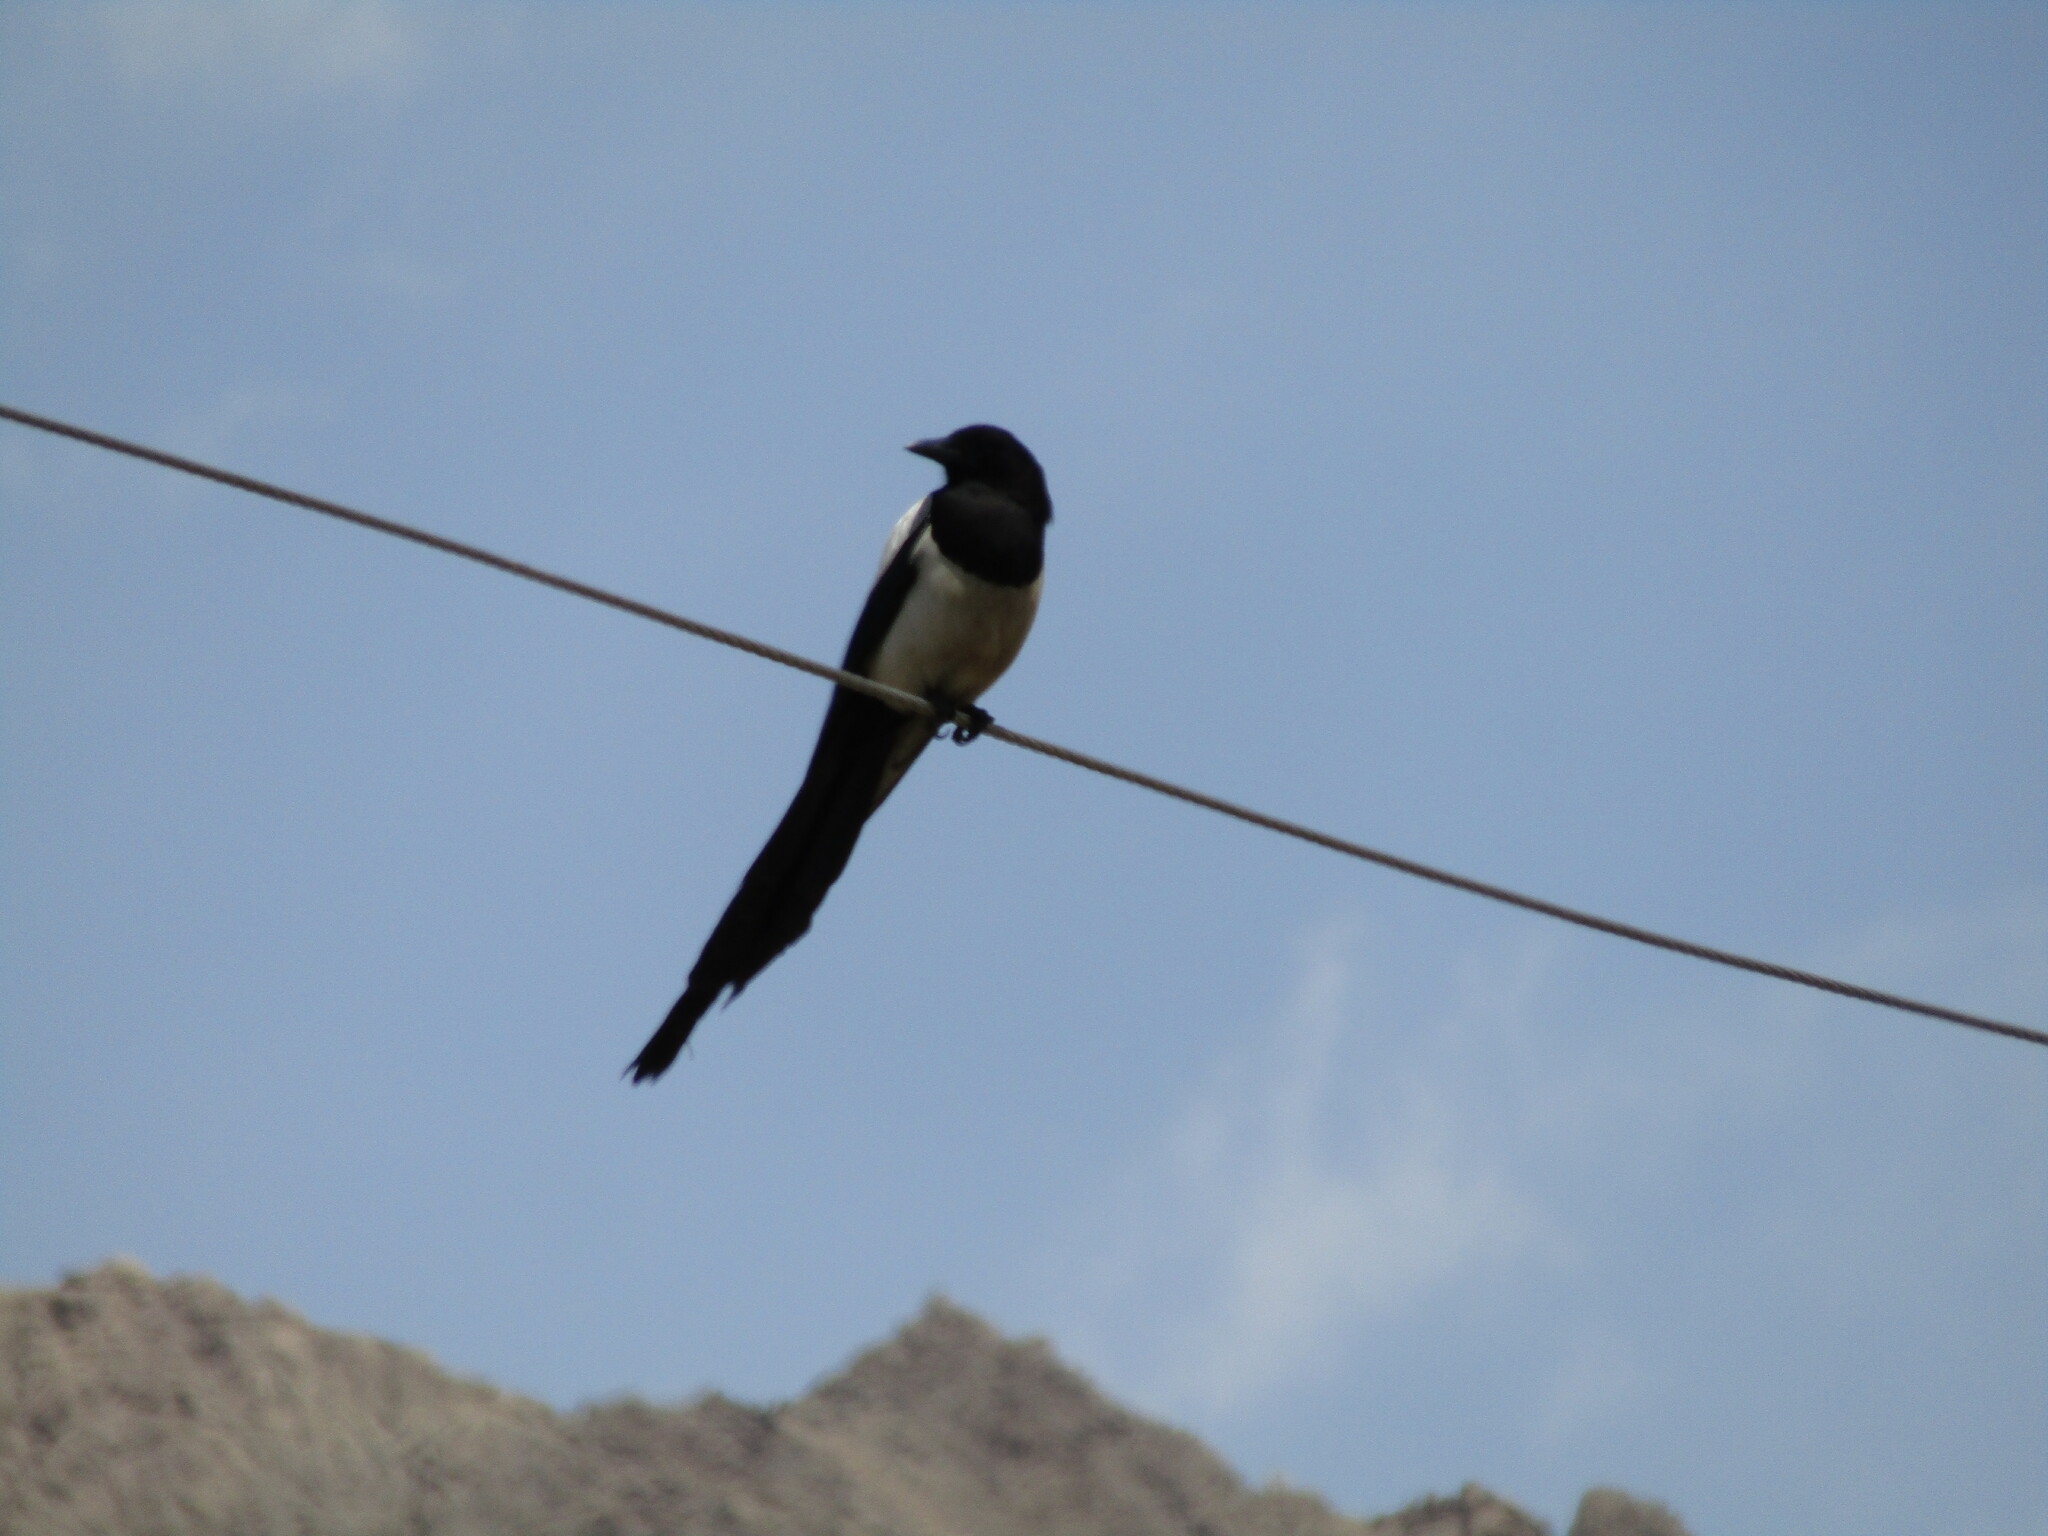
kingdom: Animalia
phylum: Chordata
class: Aves
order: Passeriformes
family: Corvidae
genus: Pica
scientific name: Pica pica
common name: Eurasian magpie
